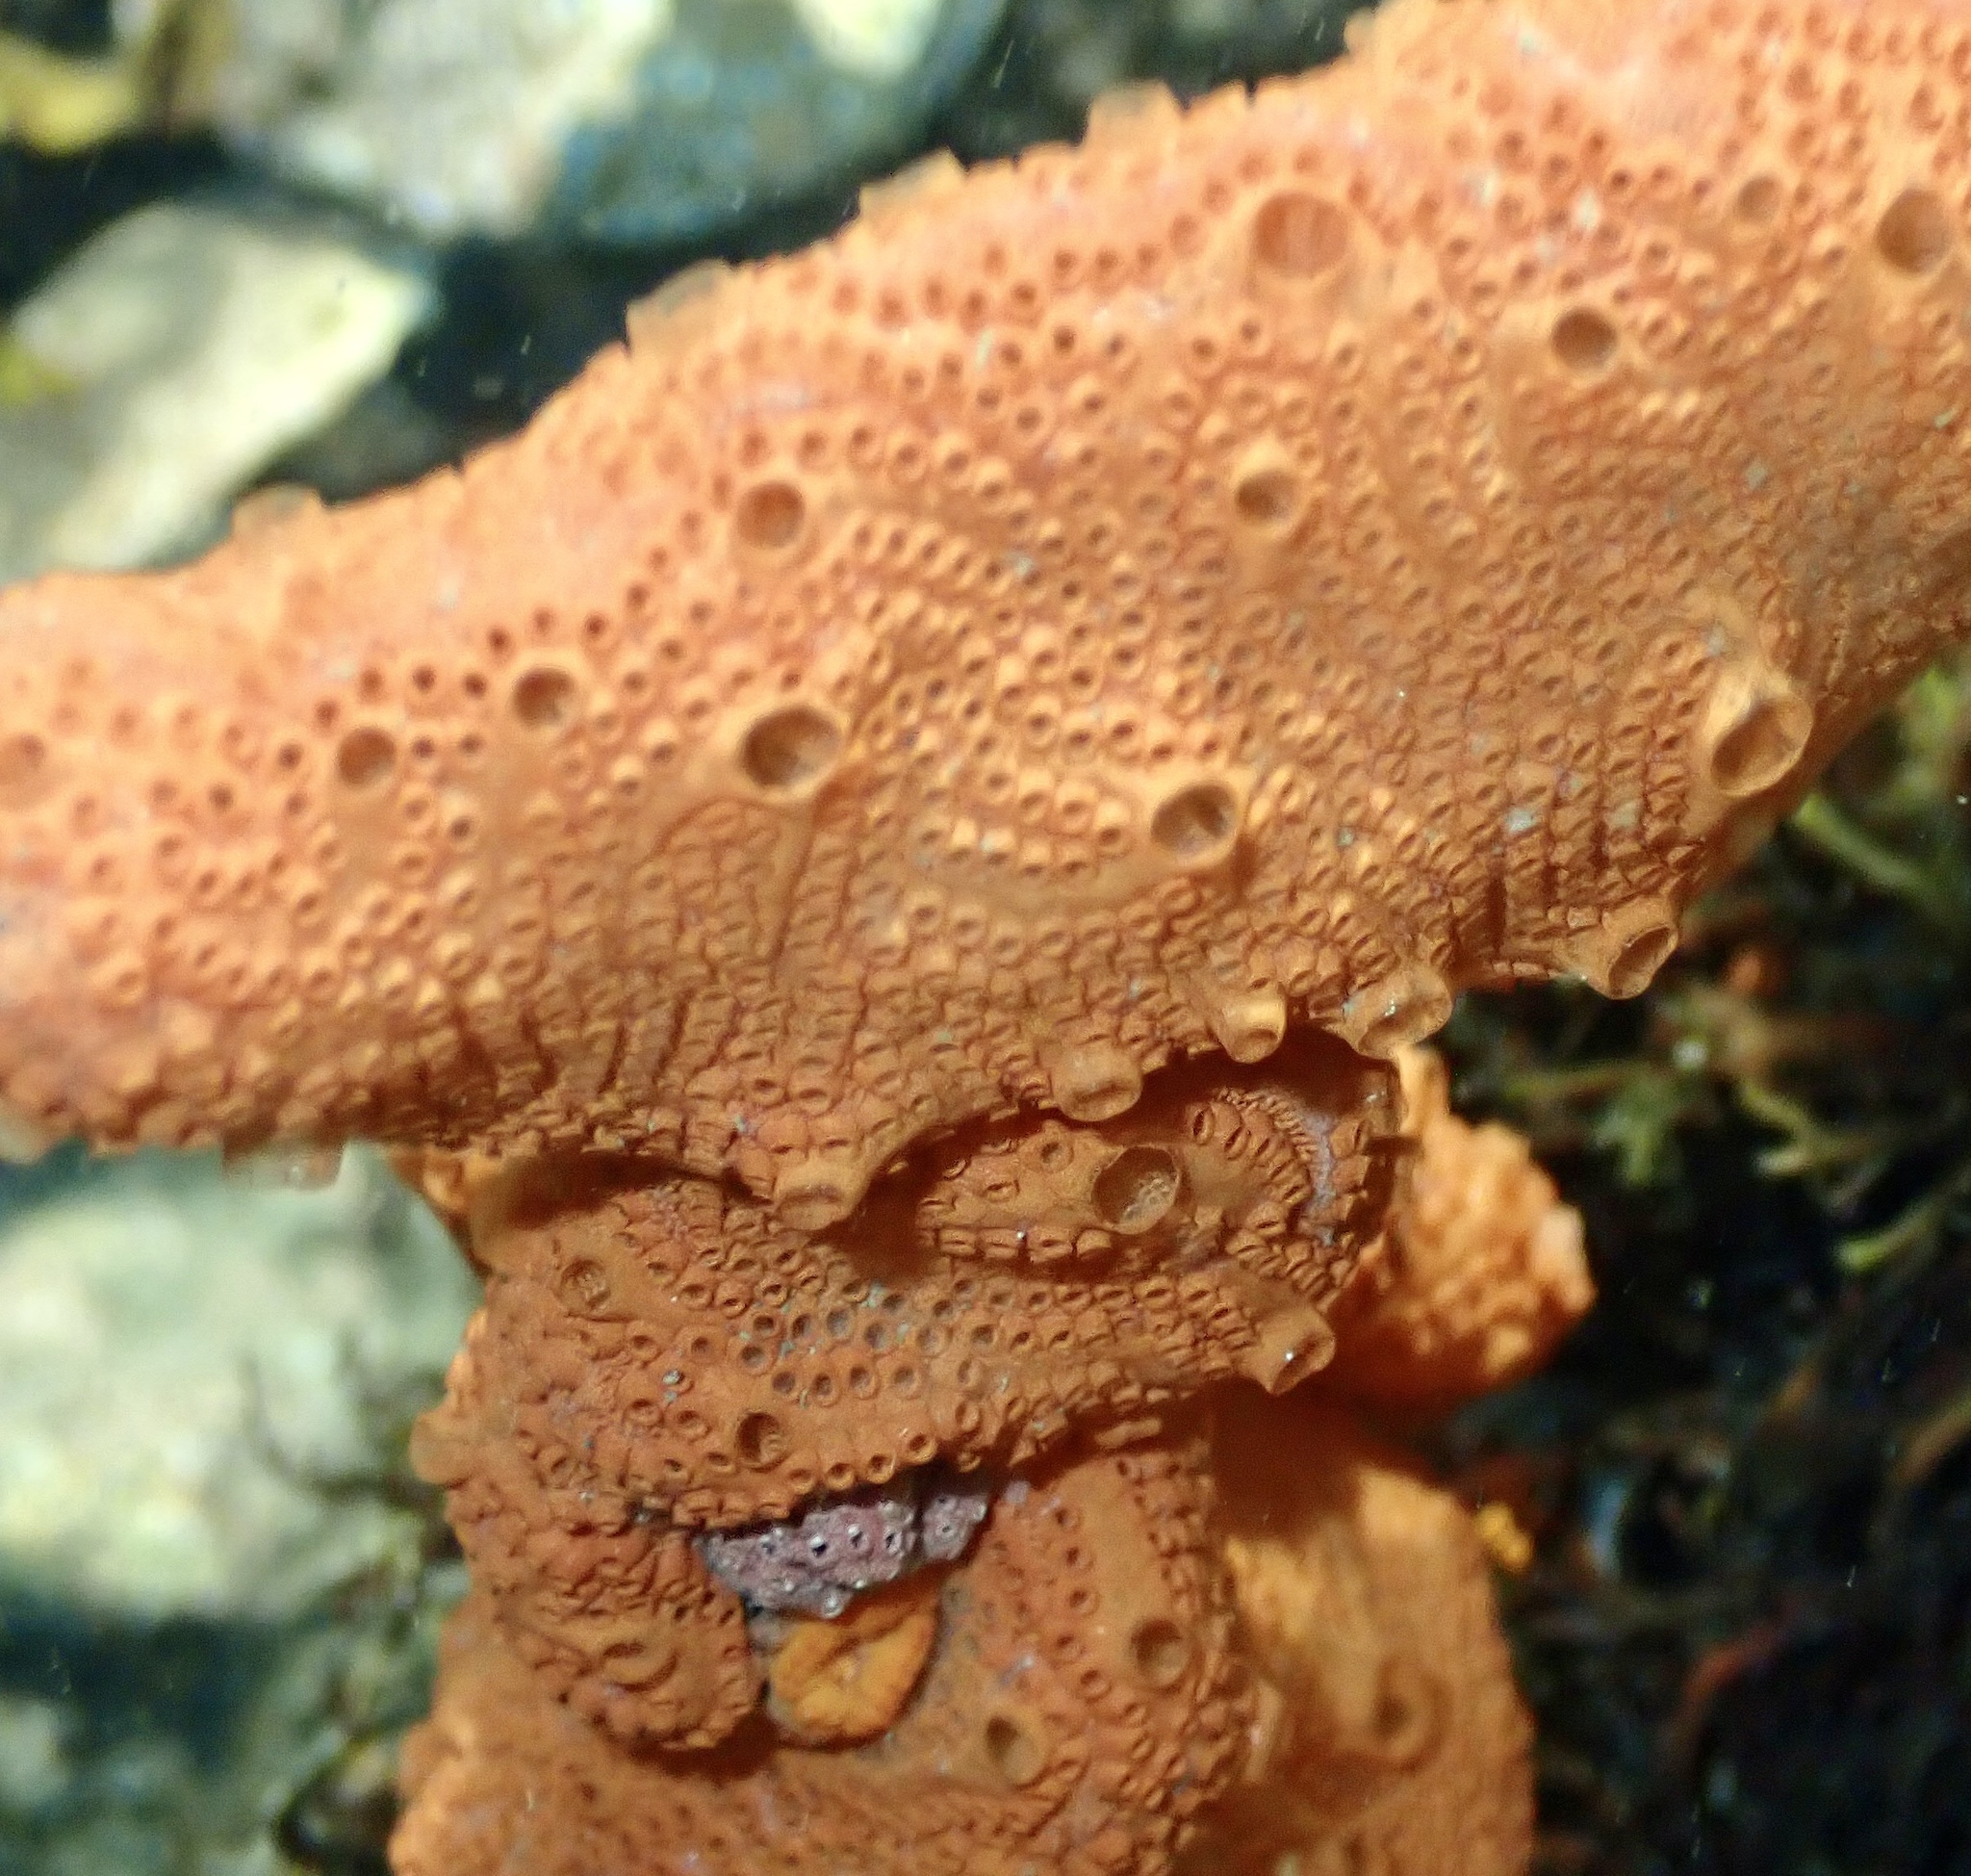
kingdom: Animalia
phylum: Chordata
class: Ascidiacea
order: Stolidobranchia
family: Styelidae
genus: Botrylloides
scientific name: Botrylloides violaceus
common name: Colonial sea squirt
